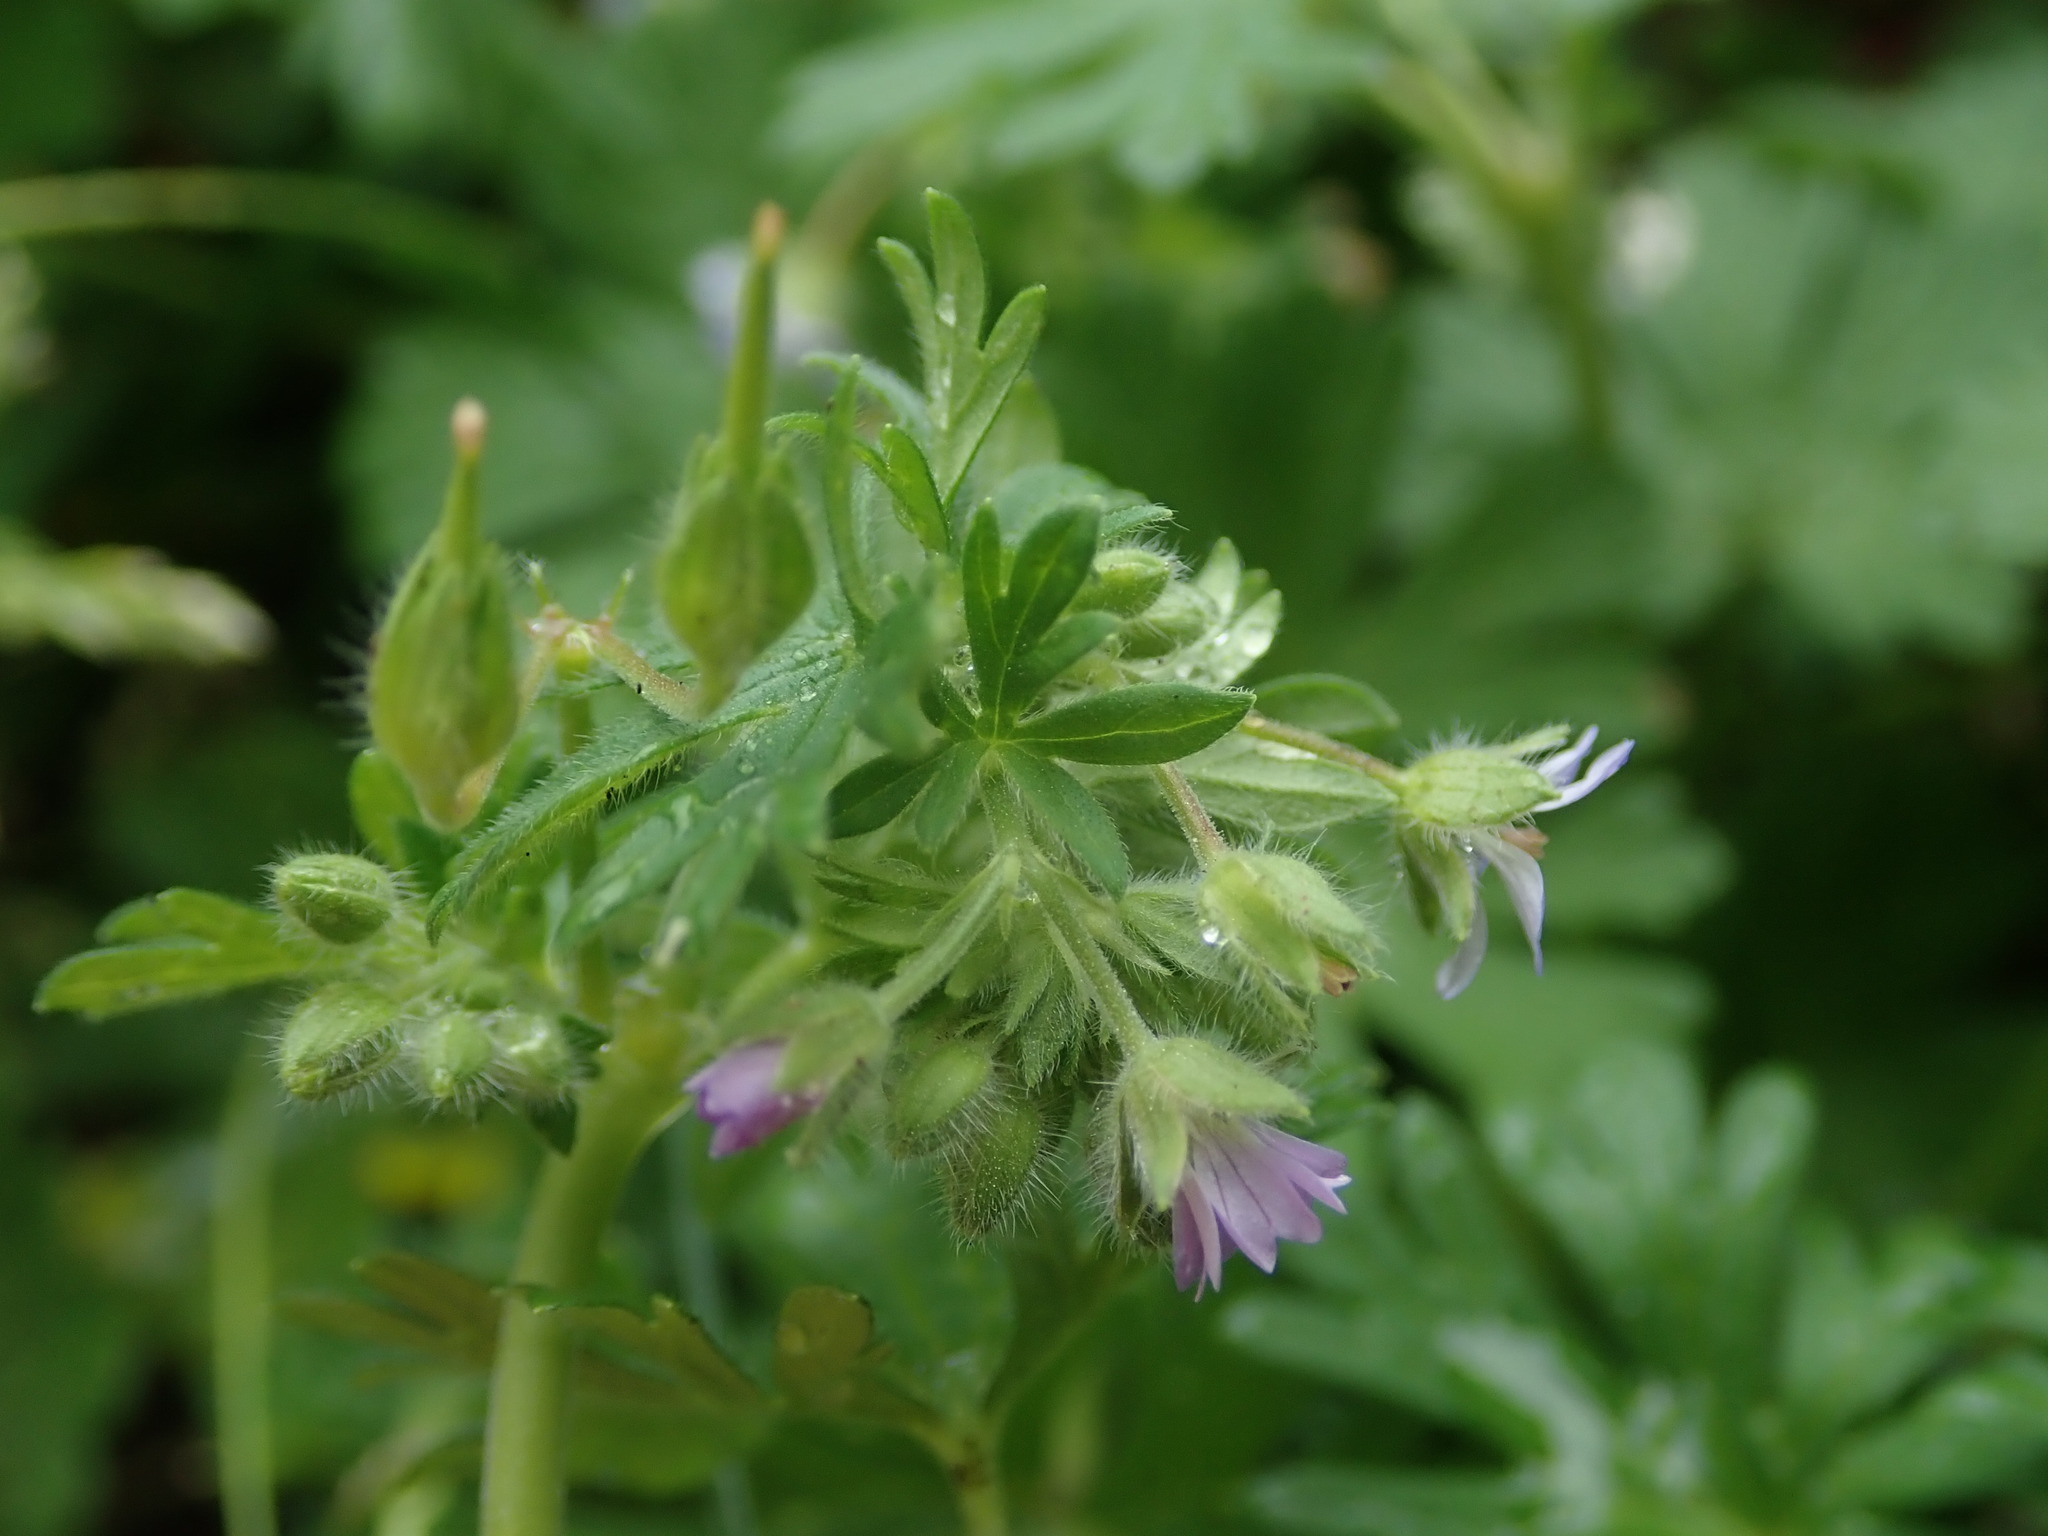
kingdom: Plantae
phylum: Tracheophyta
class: Magnoliopsida
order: Geraniales
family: Geraniaceae
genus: Geranium
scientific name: Geranium pusillum
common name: Small geranium
